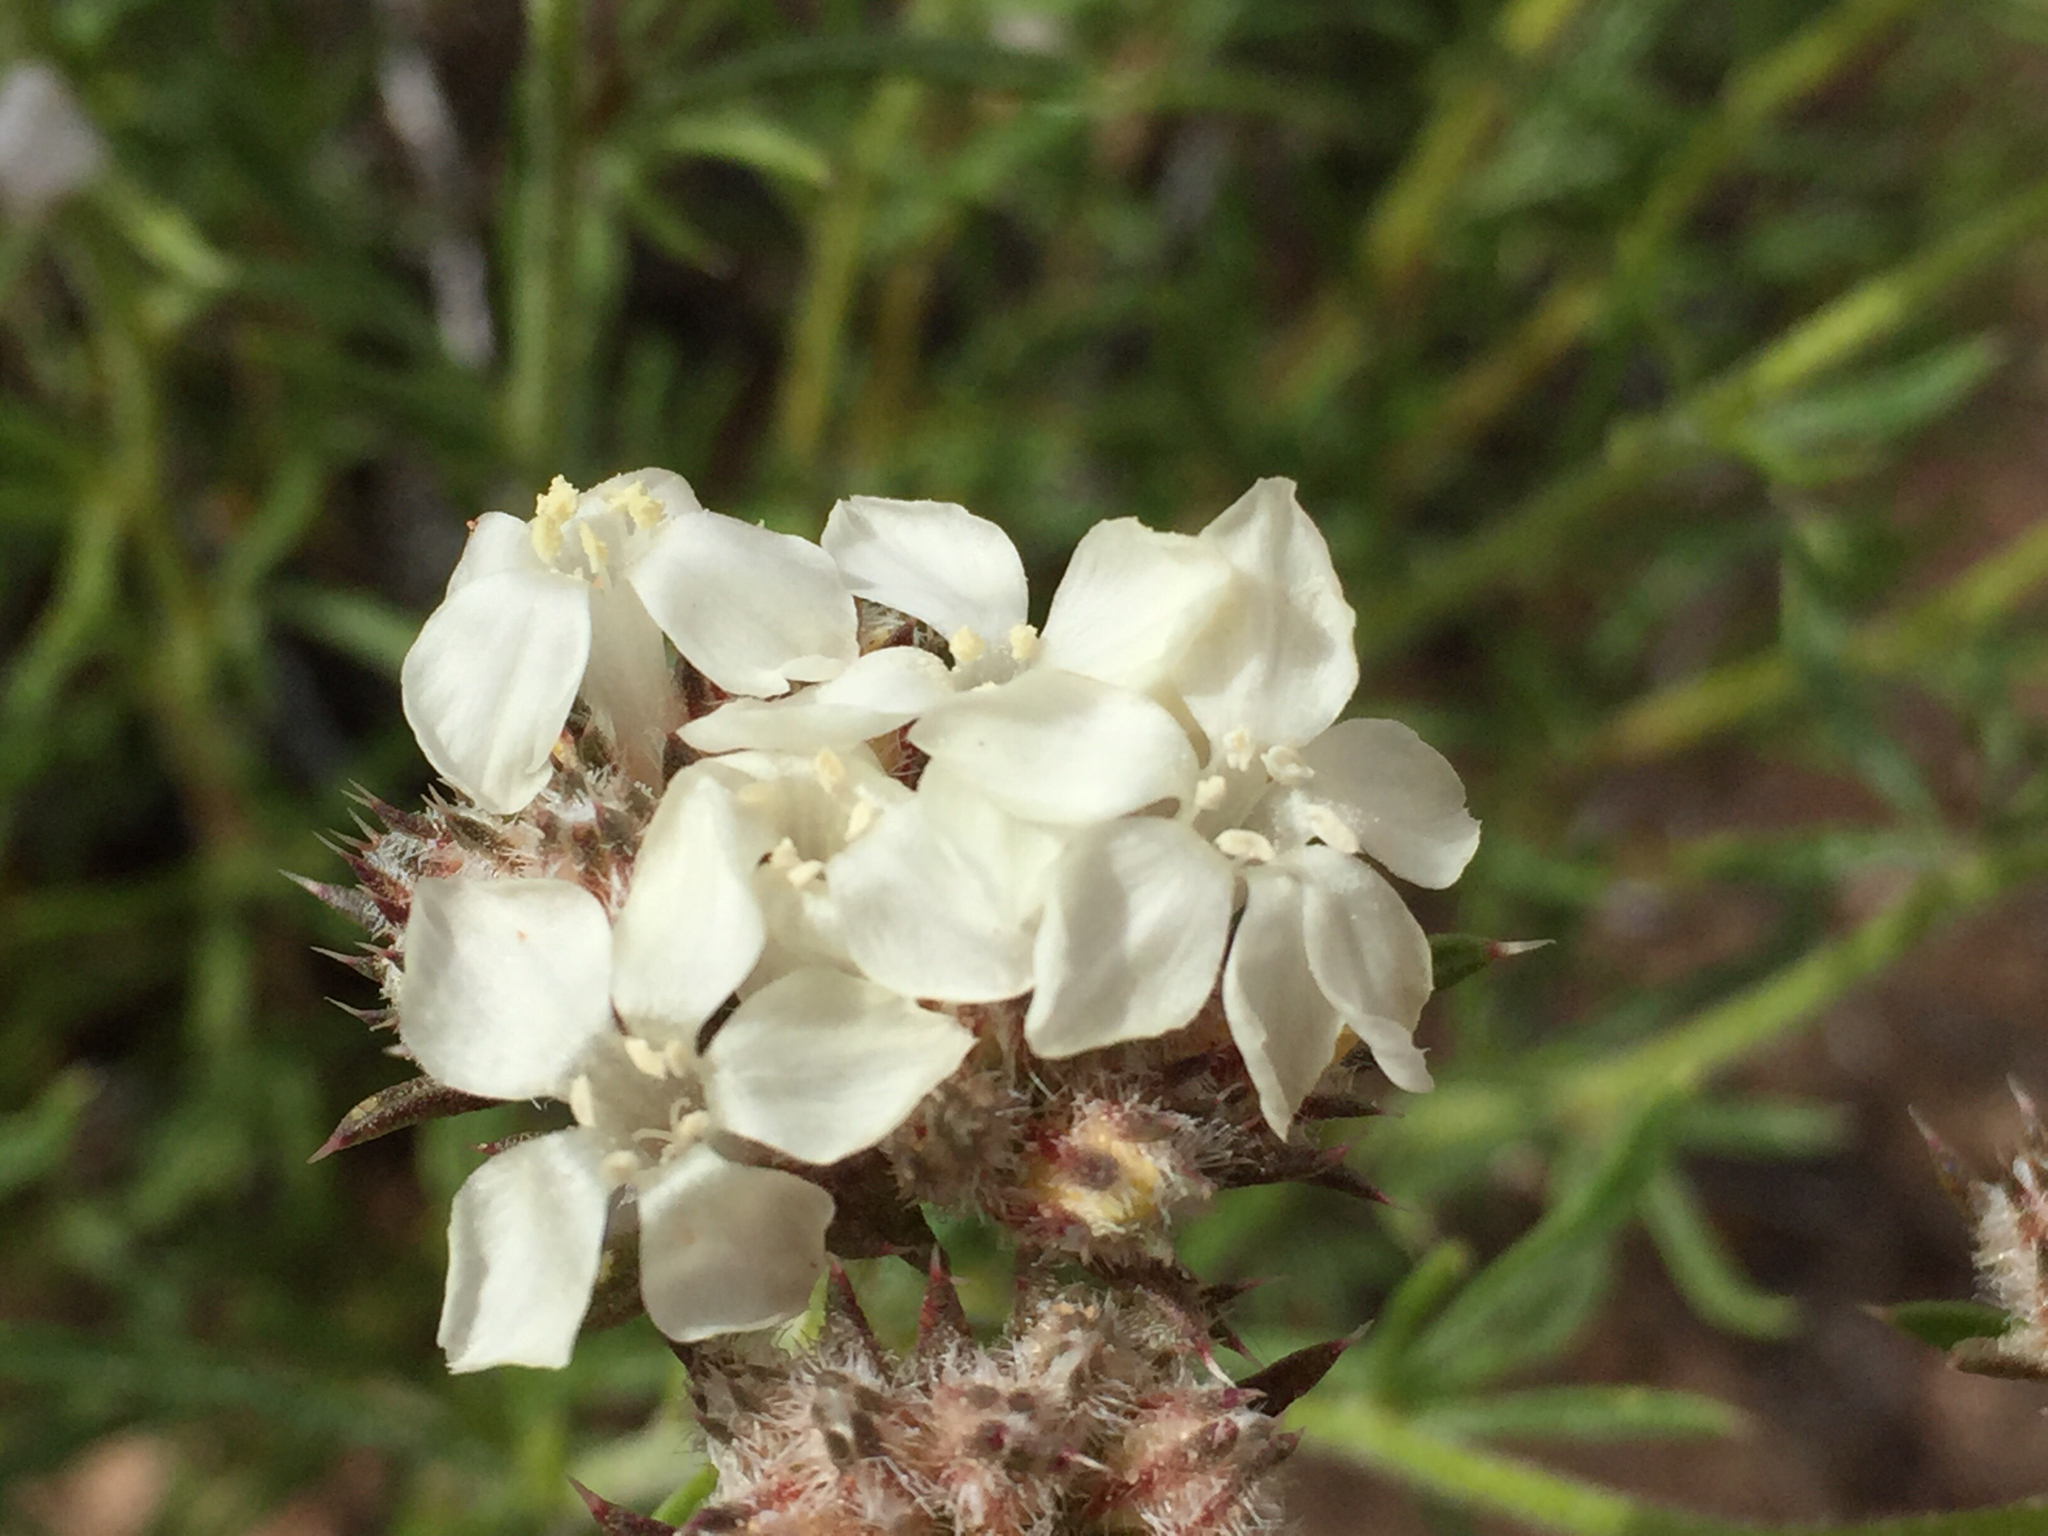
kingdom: Plantae
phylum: Tracheophyta
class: Magnoliopsida
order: Ericales
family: Polemoniaceae
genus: Ipomopsis
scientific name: Ipomopsis congesta
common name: Ball-head gilia
